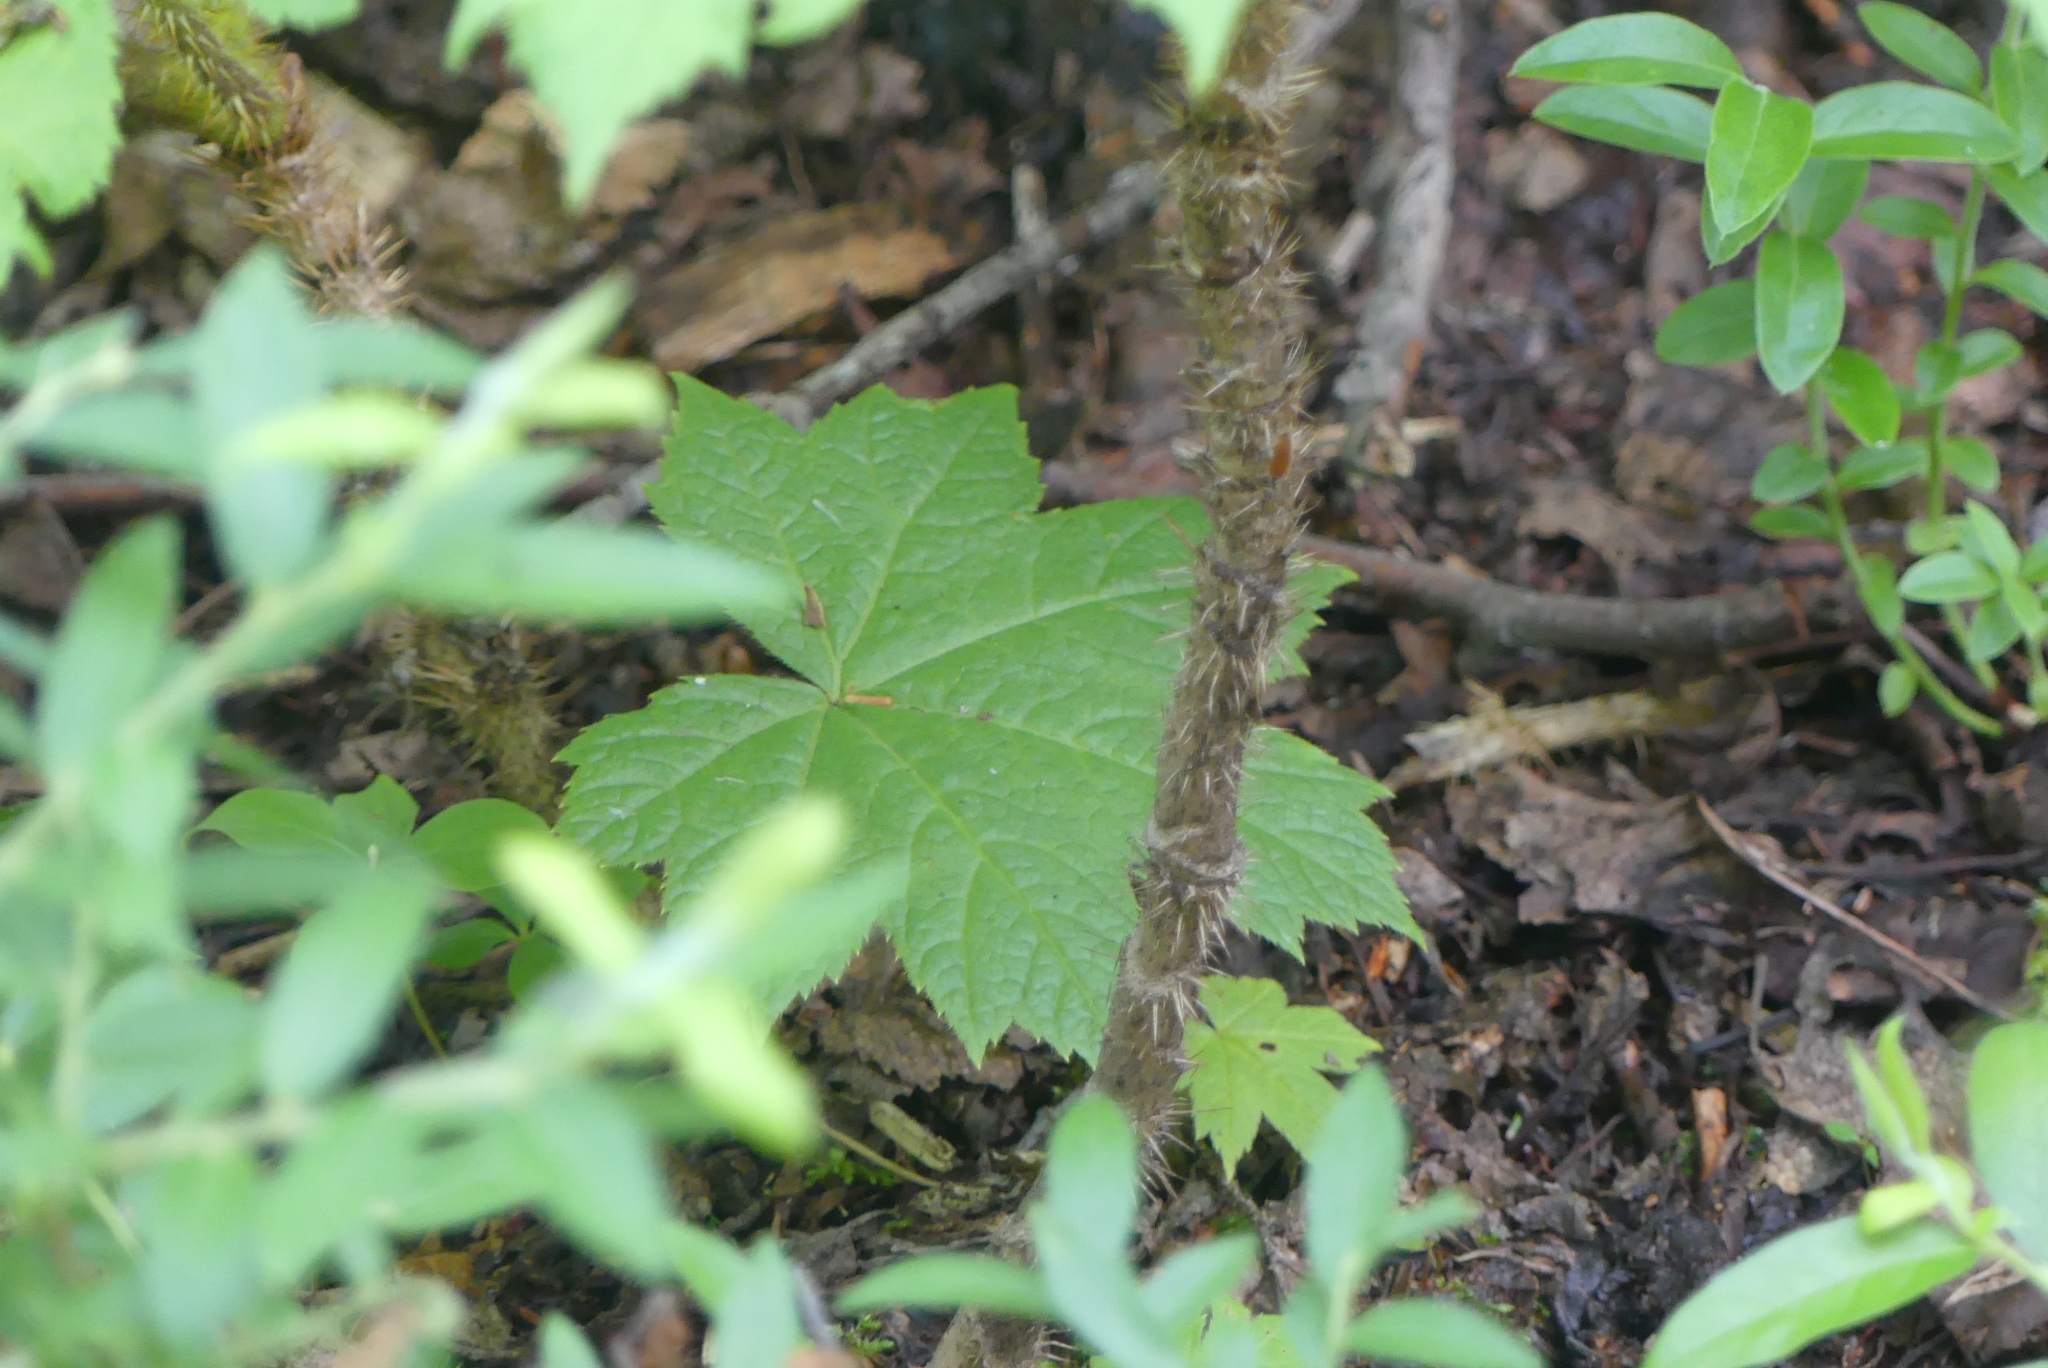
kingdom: Plantae
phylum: Tracheophyta
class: Magnoliopsida
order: Apiales
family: Araliaceae
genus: Oplopanax
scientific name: Oplopanax horridus
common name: Devil's walking-stick
